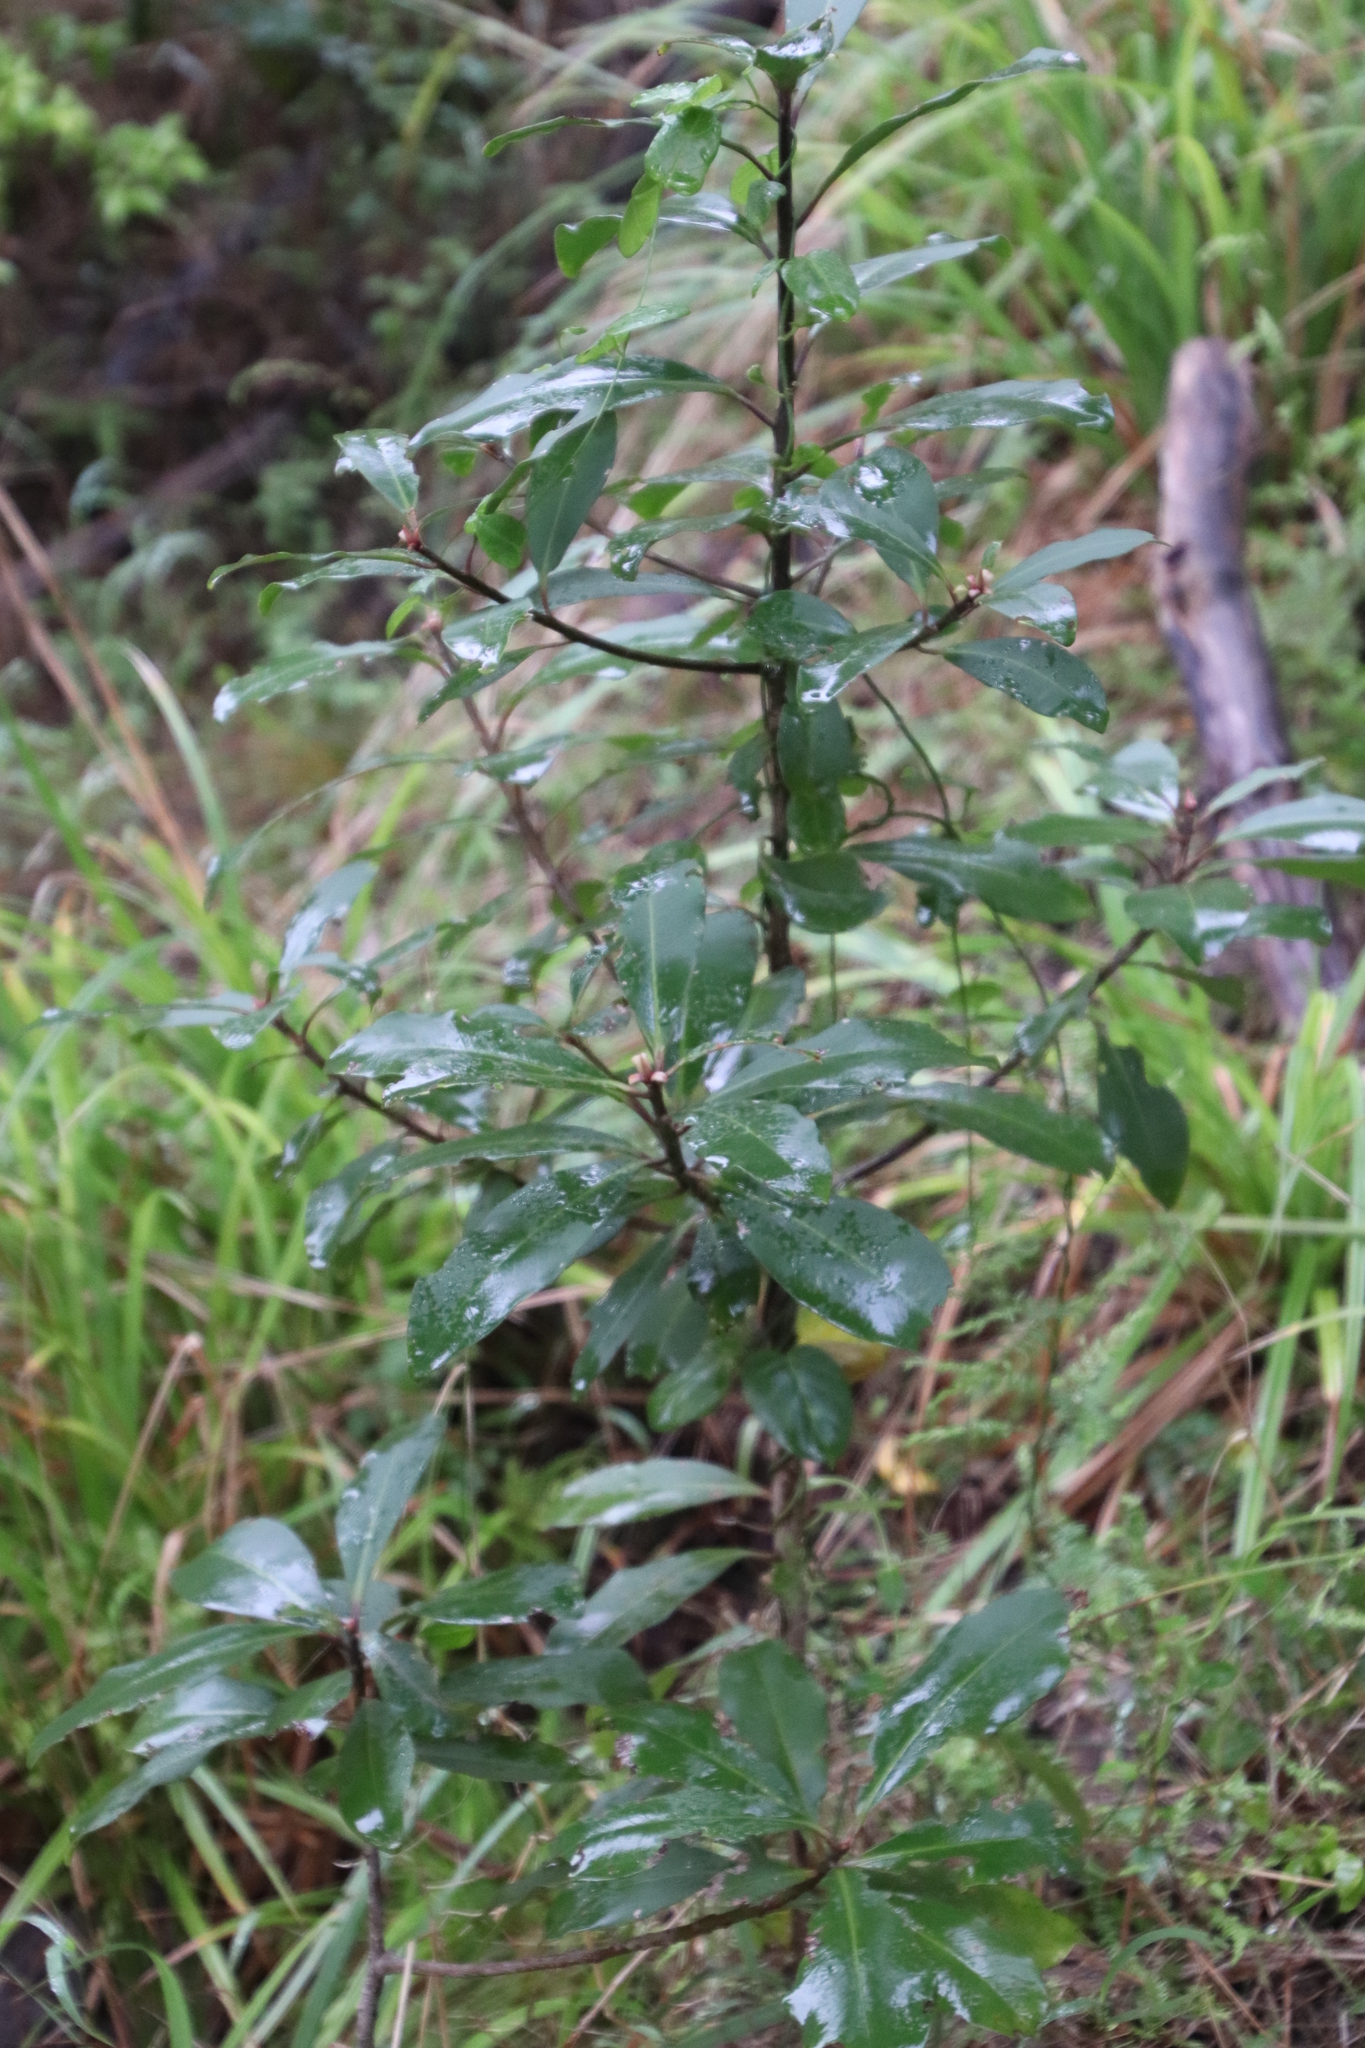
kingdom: Plantae
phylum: Tracheophyta
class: Magnoliopsida
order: Ericales
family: Primulaceae
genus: Myrsine
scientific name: Myrsine melanophloeos
